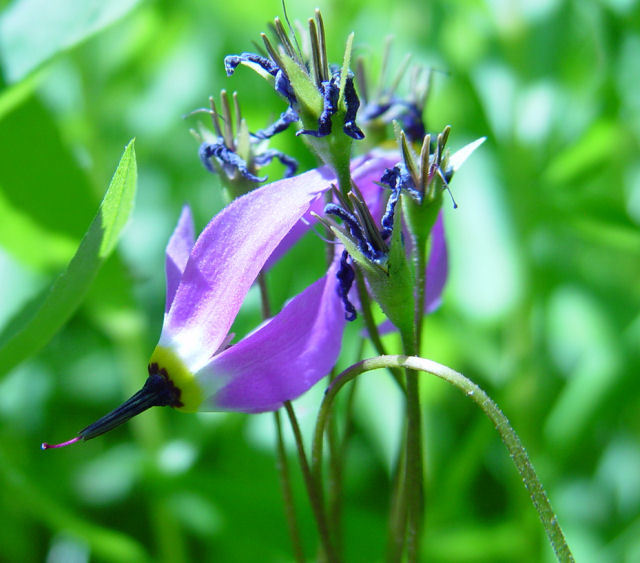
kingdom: Plantae
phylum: Tracheophyta
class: Magnoliopsida
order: Ericales
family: Primulaceae
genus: Dodecatheon
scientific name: Dodecatheon jeffreyanum
